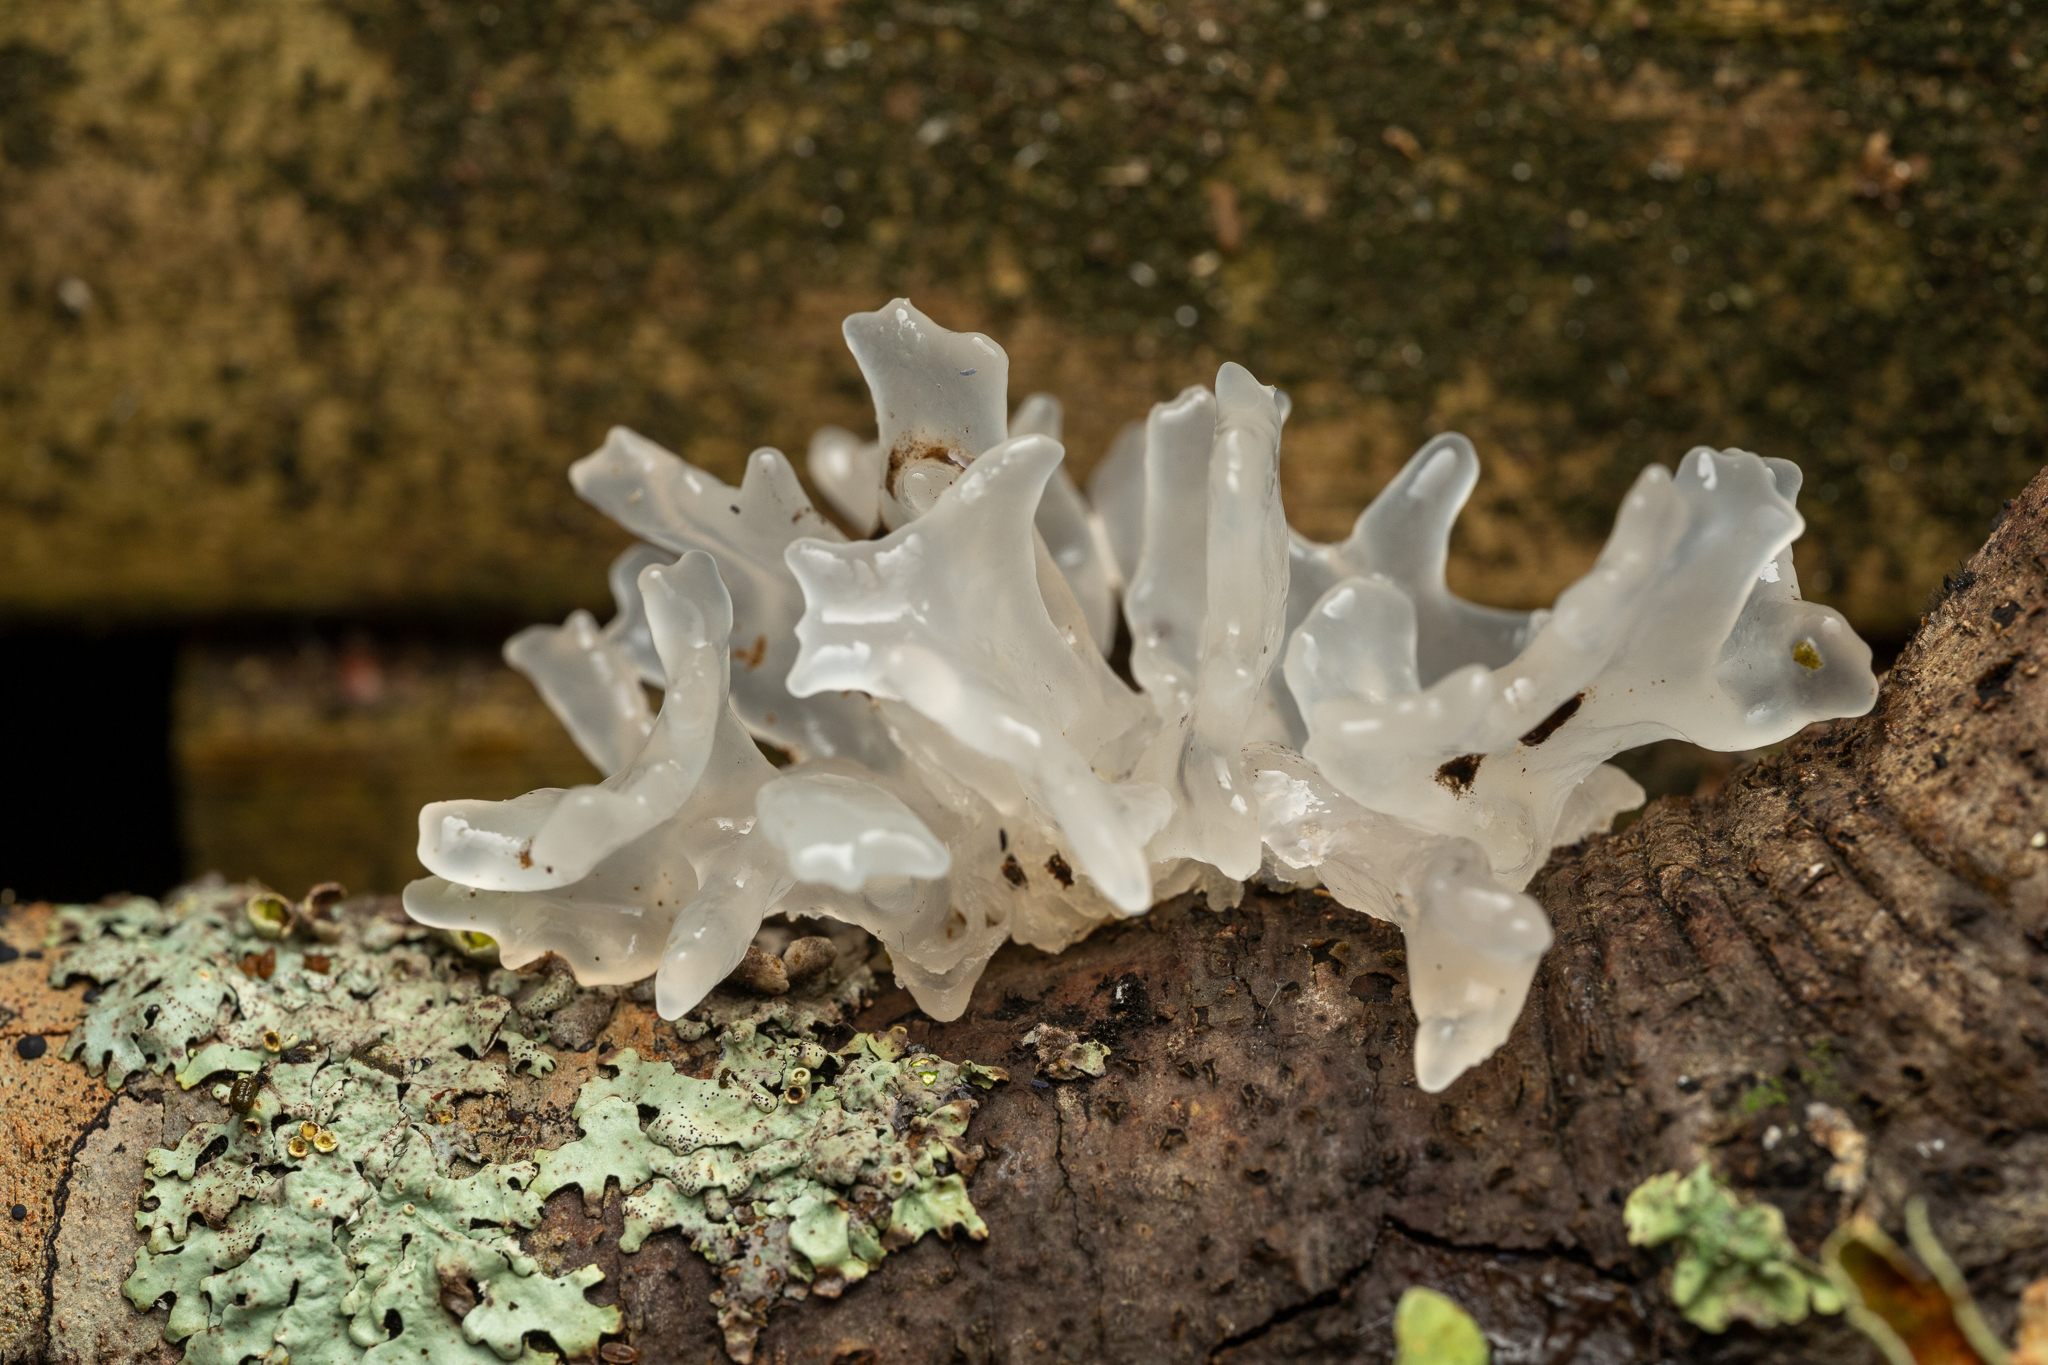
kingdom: Fungi
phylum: Basidiomycota
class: Tremellomycetes
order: Tremellales
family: Tremellaceae
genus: Tremella
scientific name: Tremella fuciformis
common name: Snow fungus
